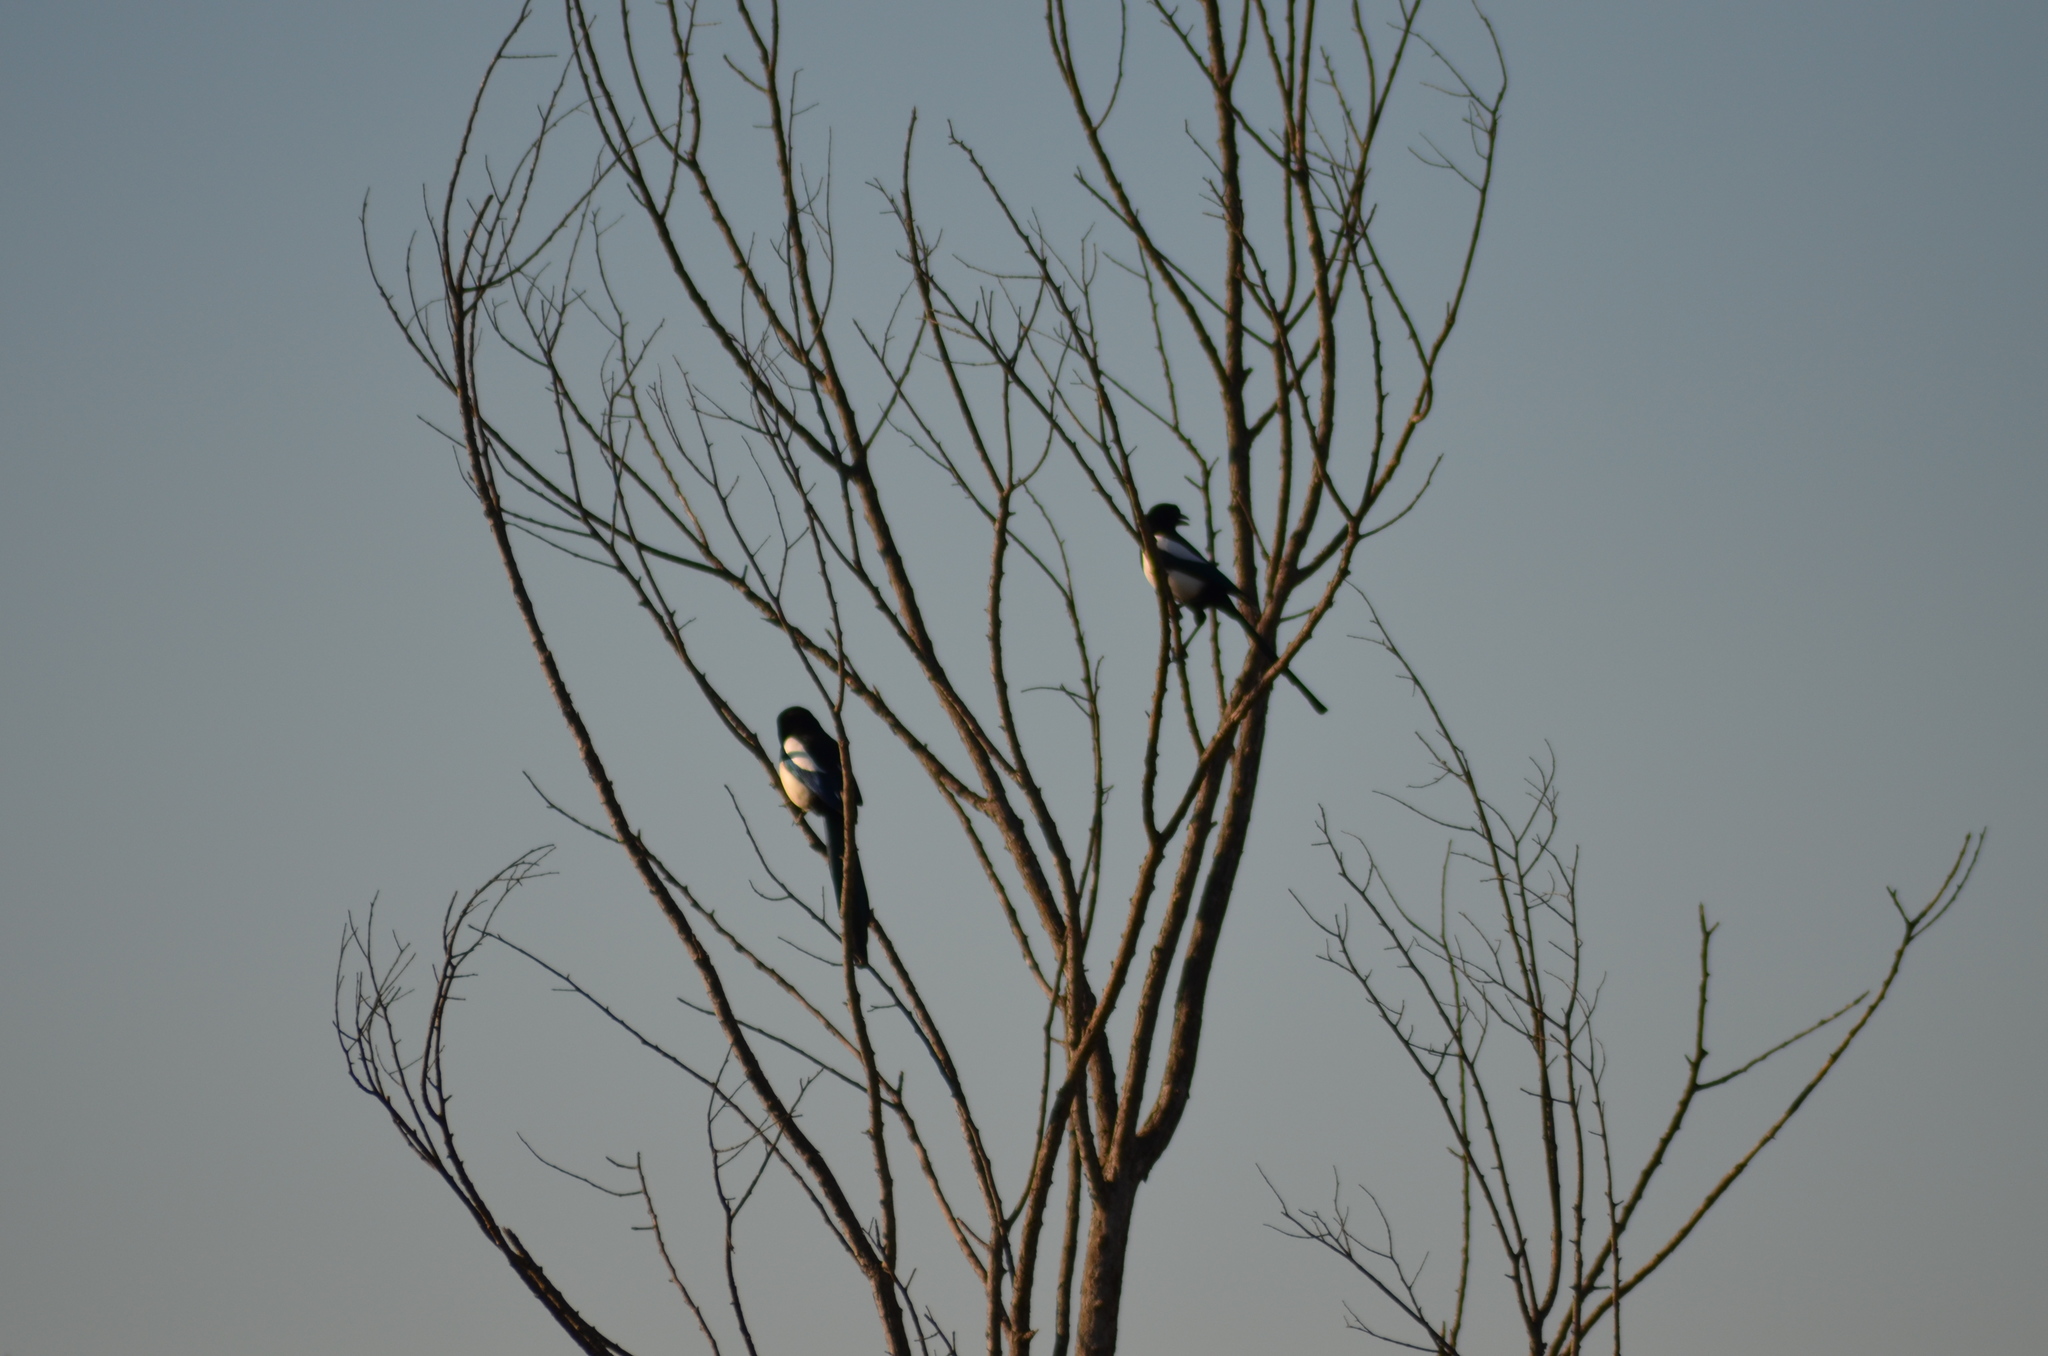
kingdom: Animalia
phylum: Chordata
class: Aves
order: Passeriformes
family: Corvidae
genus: Pica
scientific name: Pica pica
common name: Eurasian magpie
